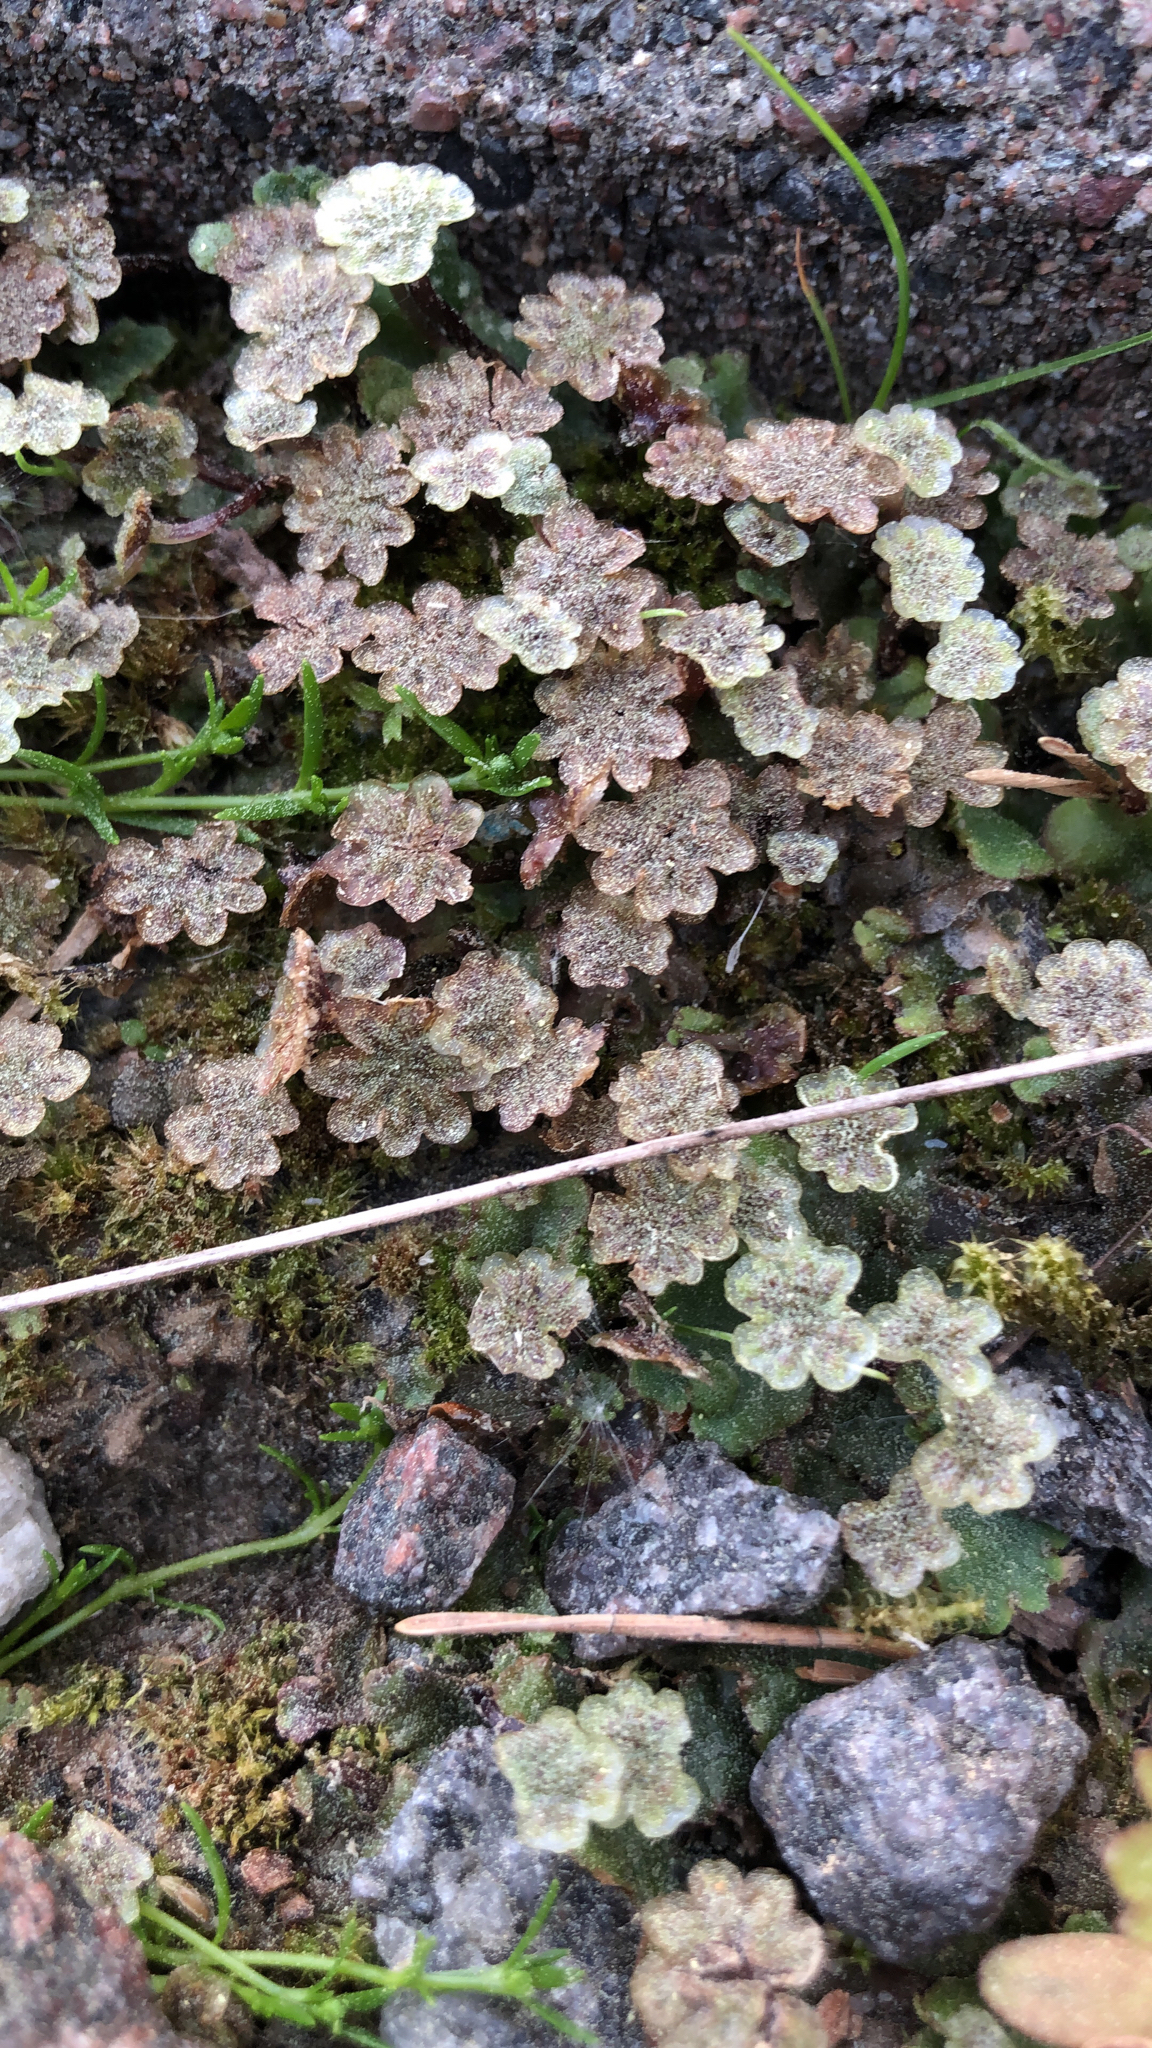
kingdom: Plantae
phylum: Marchantiophyta
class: Marchantiopsida
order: Marchantiales
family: Marchantiaceae
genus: Marchantia
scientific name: Marchantia polymorpha
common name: Common liverwort
